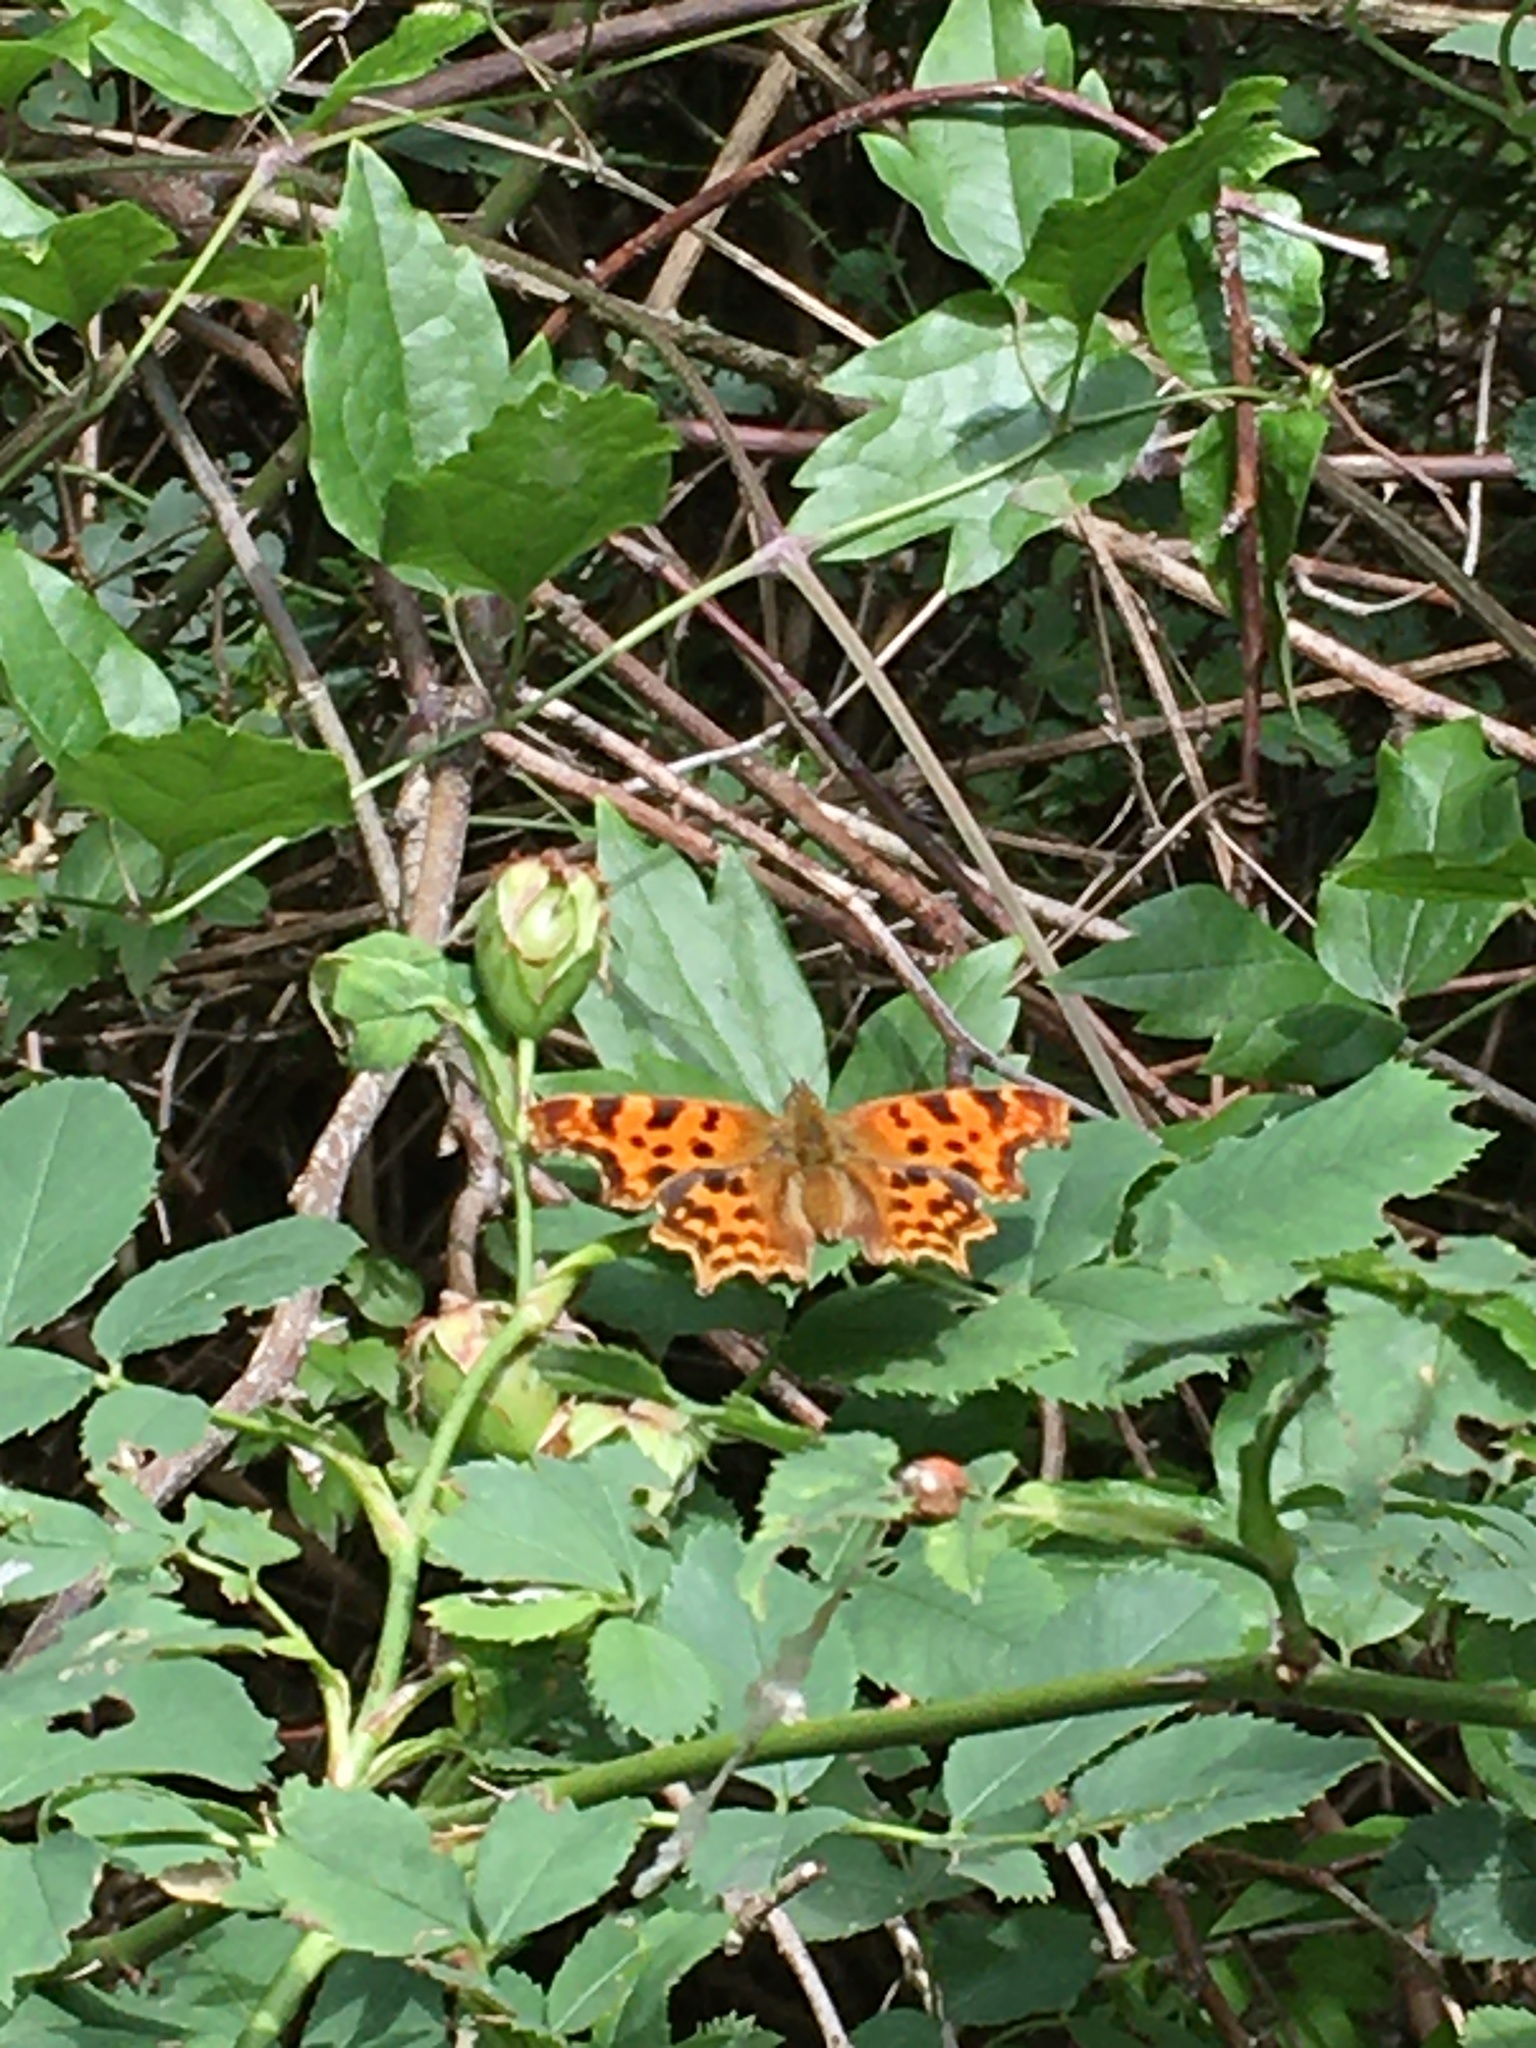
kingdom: Animalia
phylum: Arthropoda
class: Insecta
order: Lepidoptera
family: Nymphalidae
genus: Polygonia
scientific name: Polygonia c-album
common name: Comma
